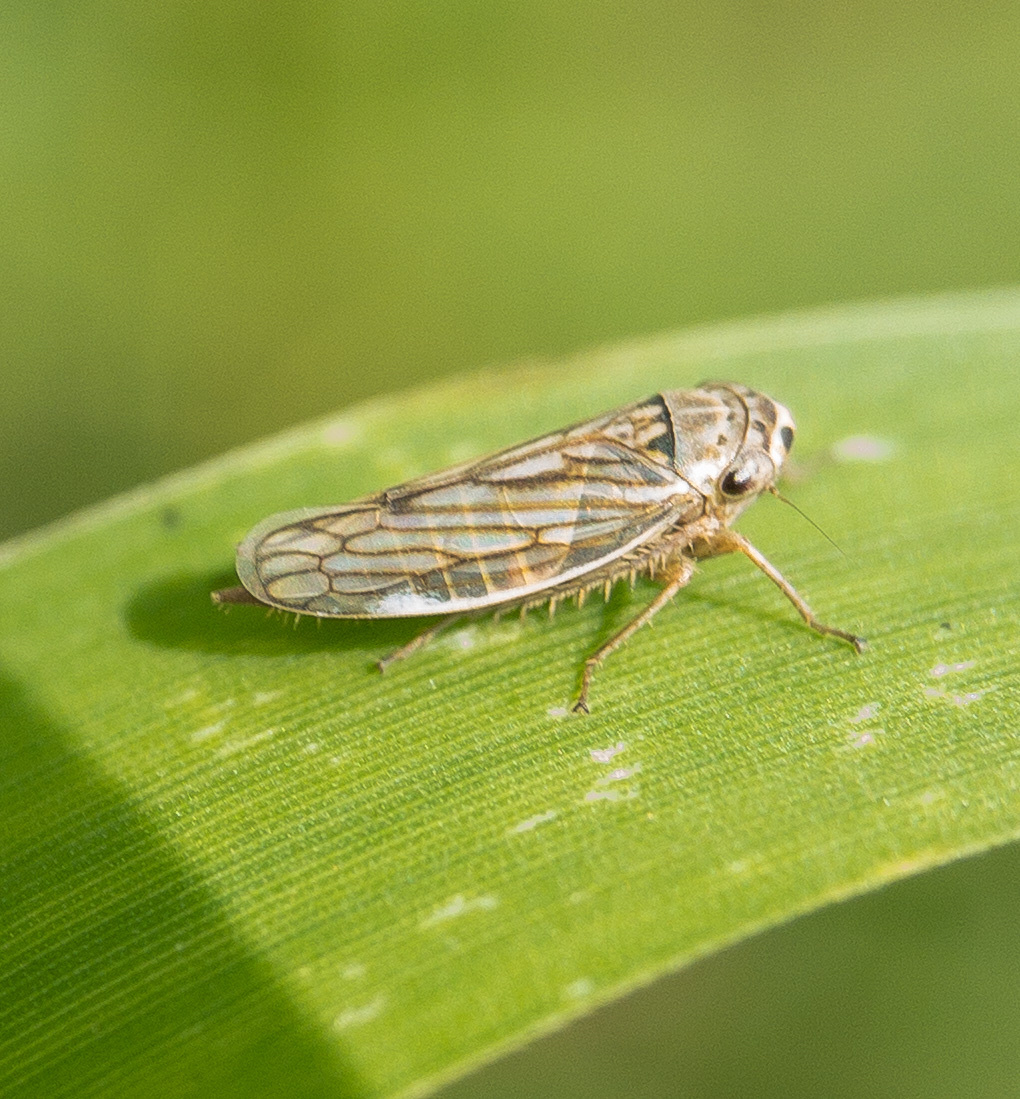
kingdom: Animalia
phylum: Arthropoda
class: Insecta
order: Hemiptera
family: Cicadellidae
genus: Exitianus
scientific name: Exitianus exitiosus
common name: Gray lawn leafhopper
